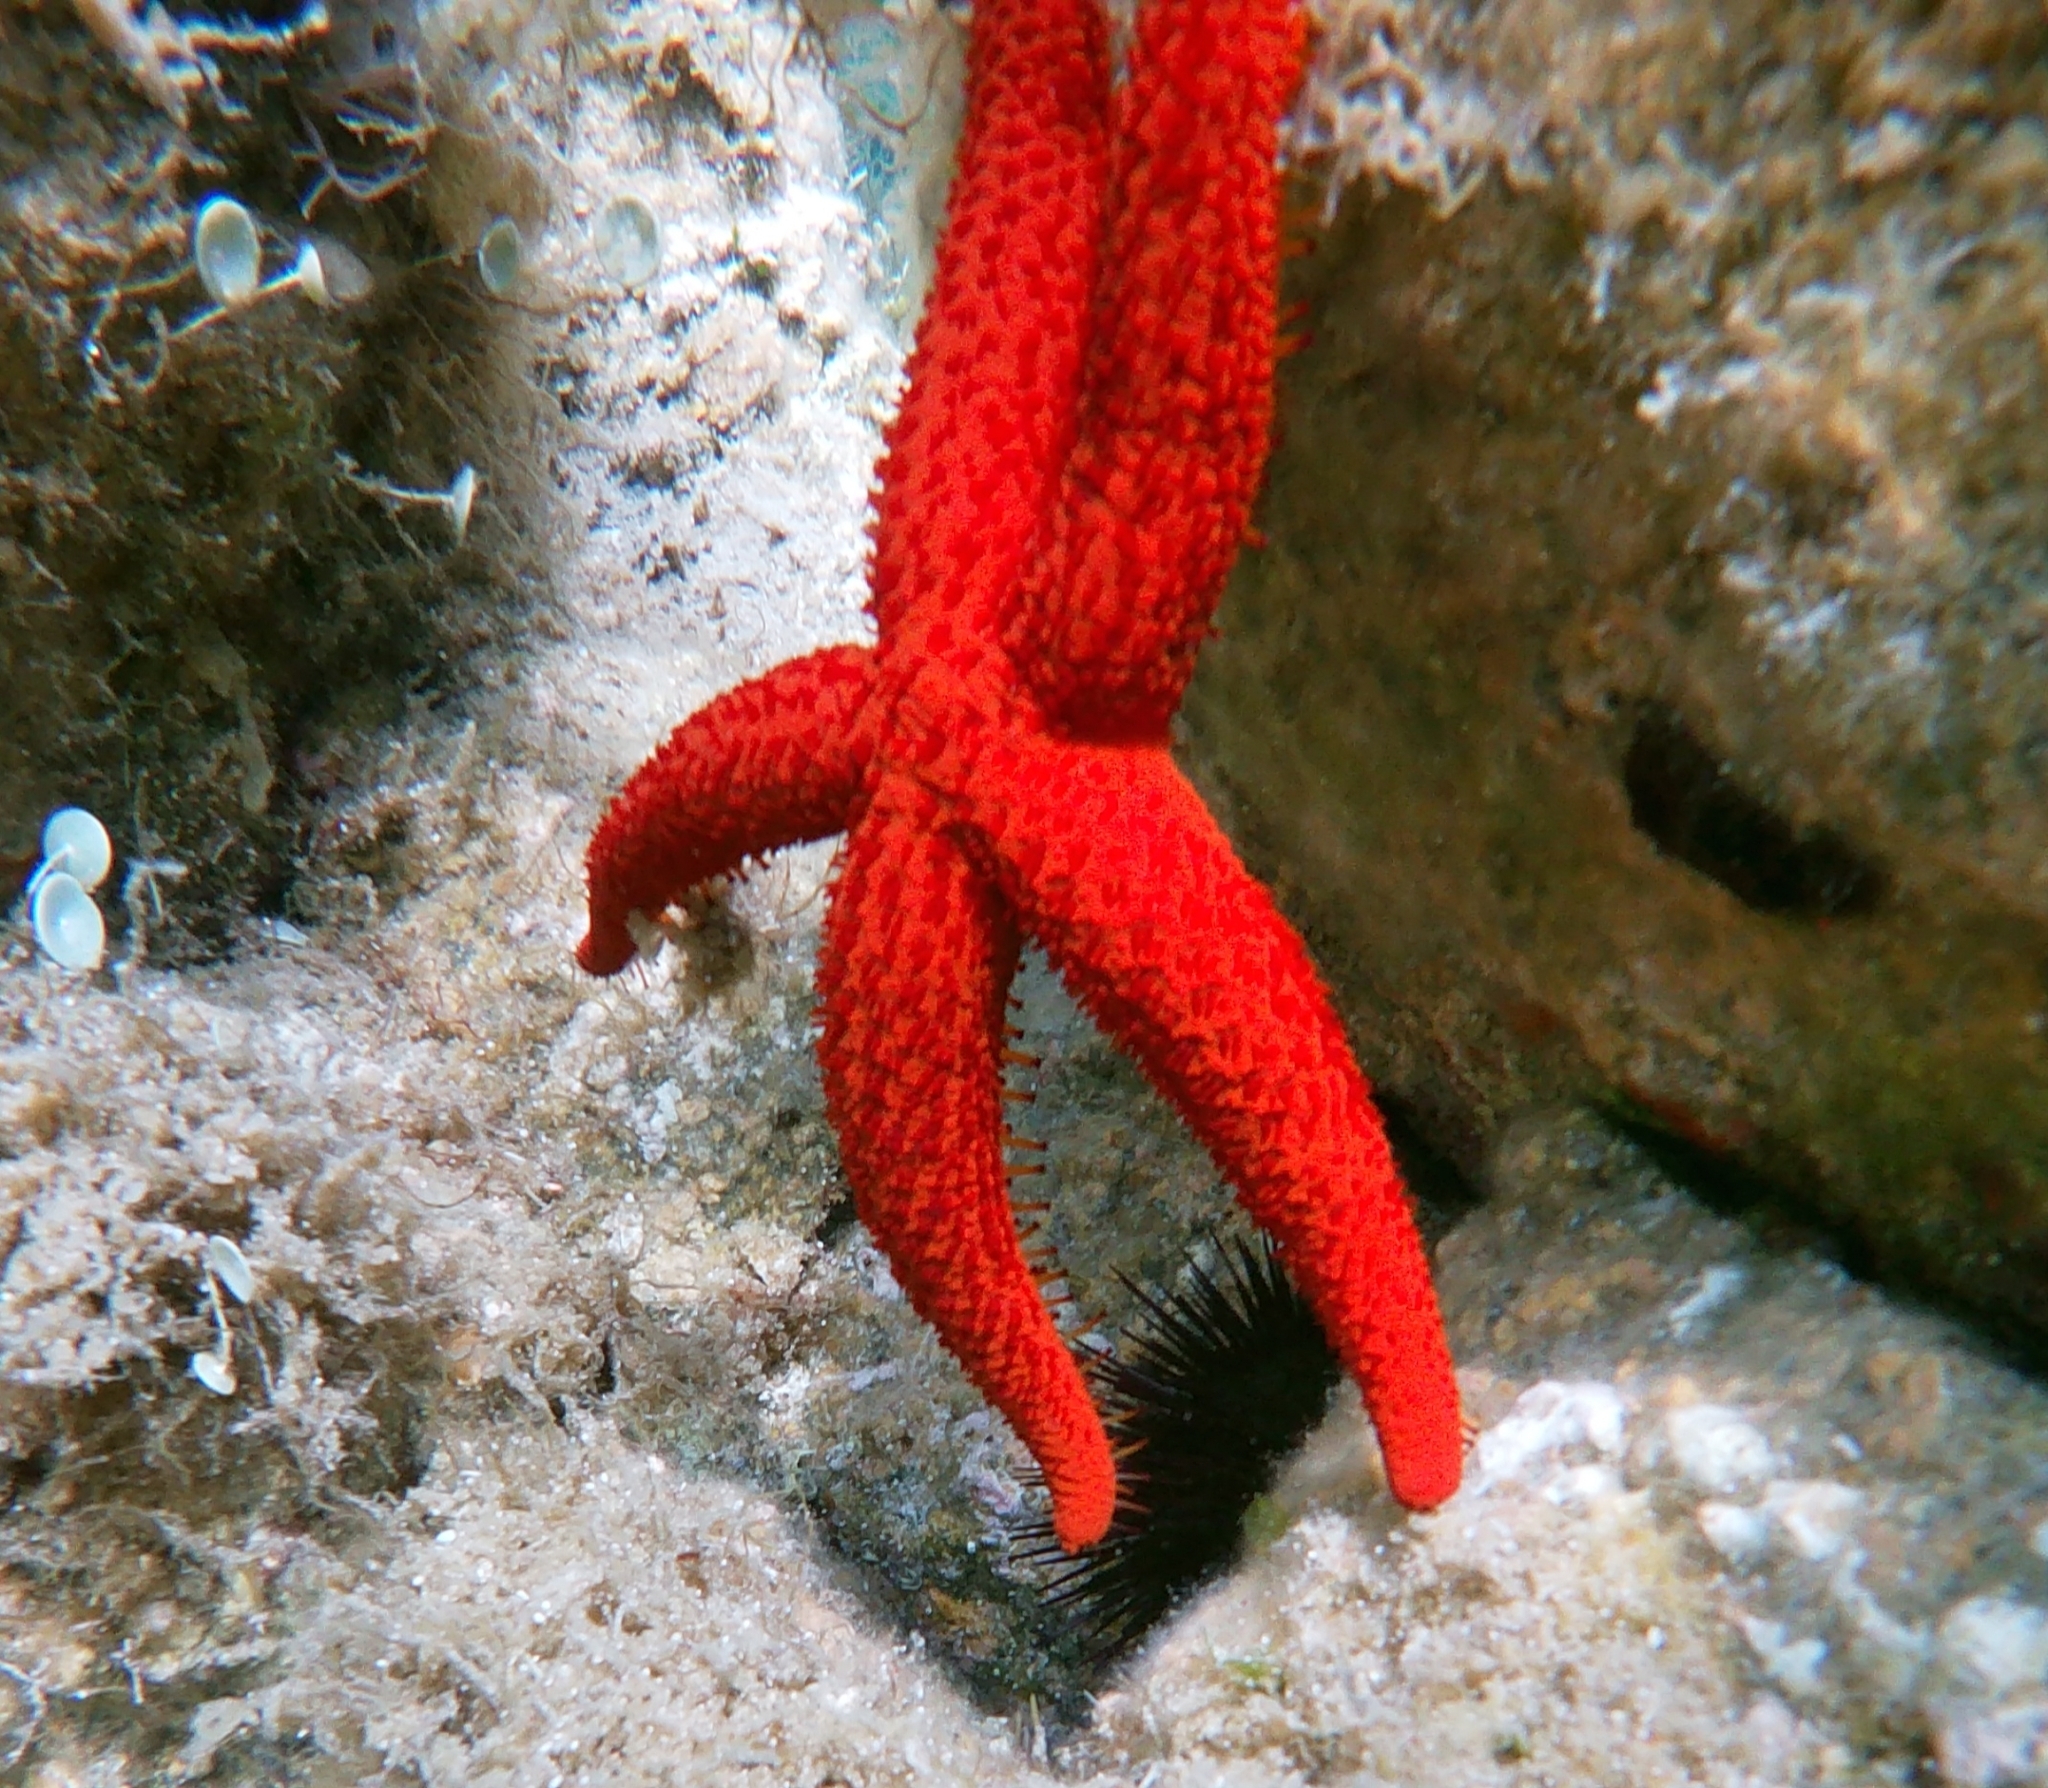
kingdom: Animalia
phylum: Echinodermata
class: Asteroidea
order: Spinulosida
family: Echinasteridae
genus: Echinaster
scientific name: Echinaster sepositus
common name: Red starfish
